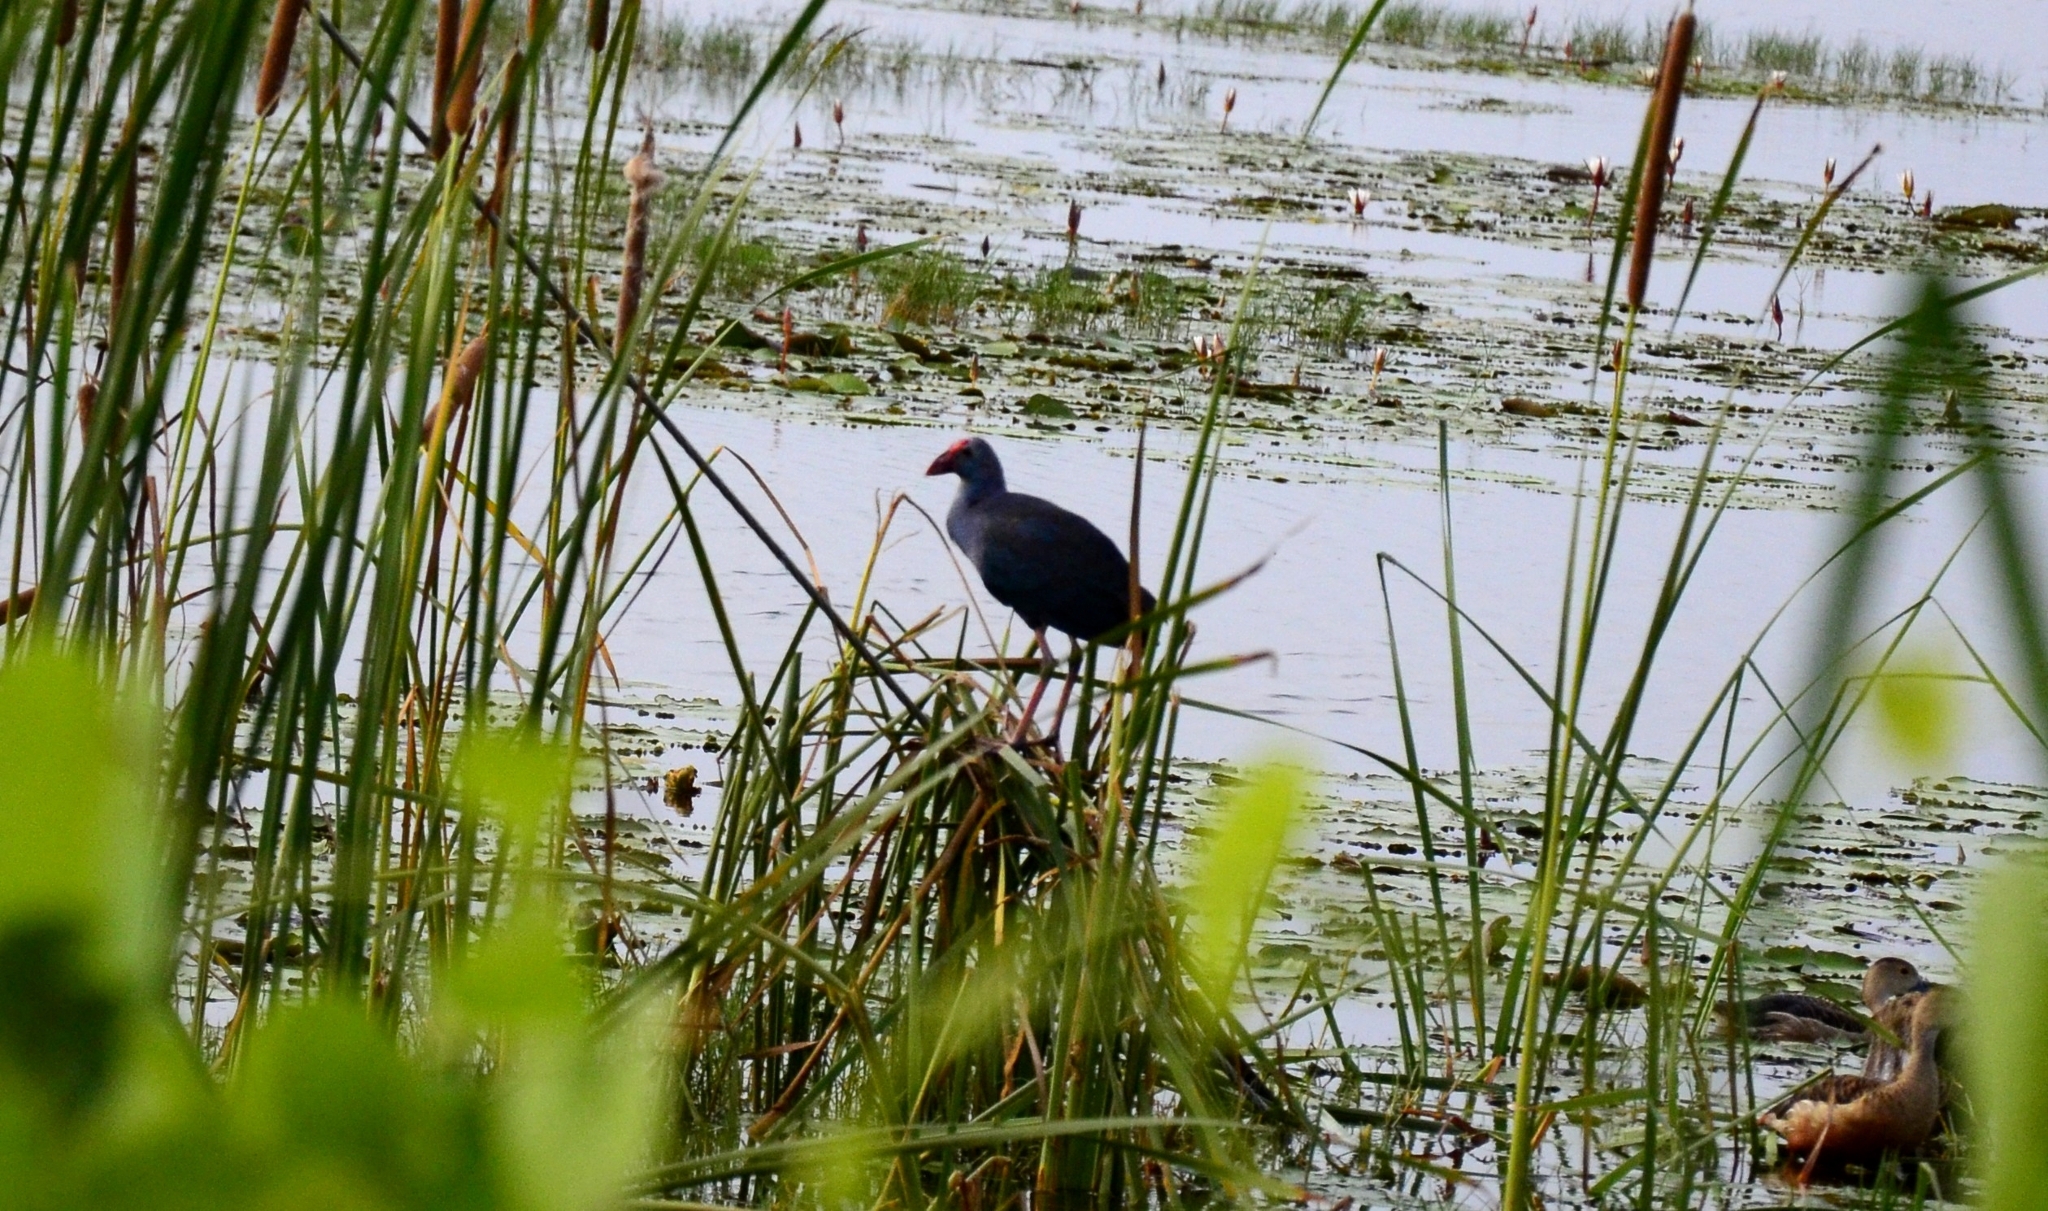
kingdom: Animalia
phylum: Chordata
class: Aves
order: Gruiformes
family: Rallidae
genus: Porphyrio
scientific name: Porphyrio porphyrio
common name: Purple swamphen
